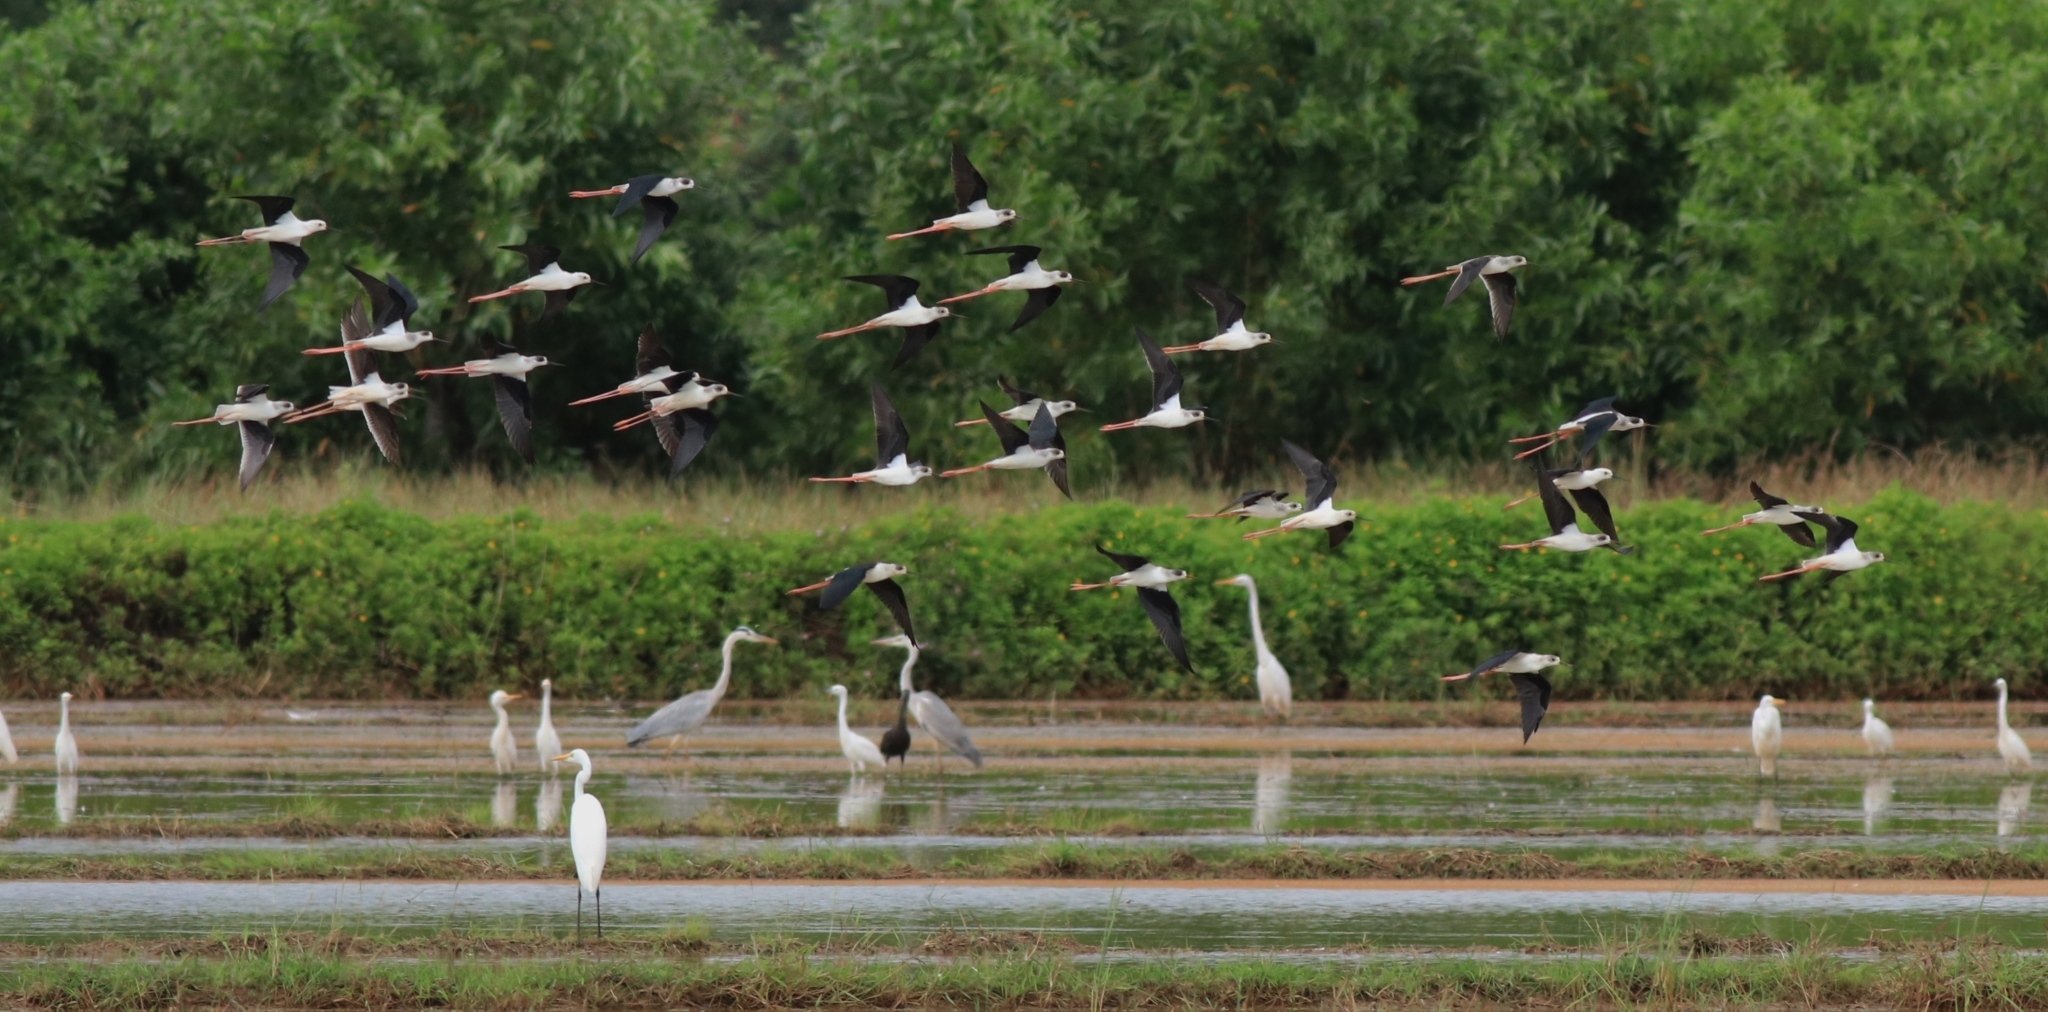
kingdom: Animalia
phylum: Chordata
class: Aves
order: Charadriiformes
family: Recurvirostridae
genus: Himantopus
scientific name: Himantopus himantopus
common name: Black-winged stilt
